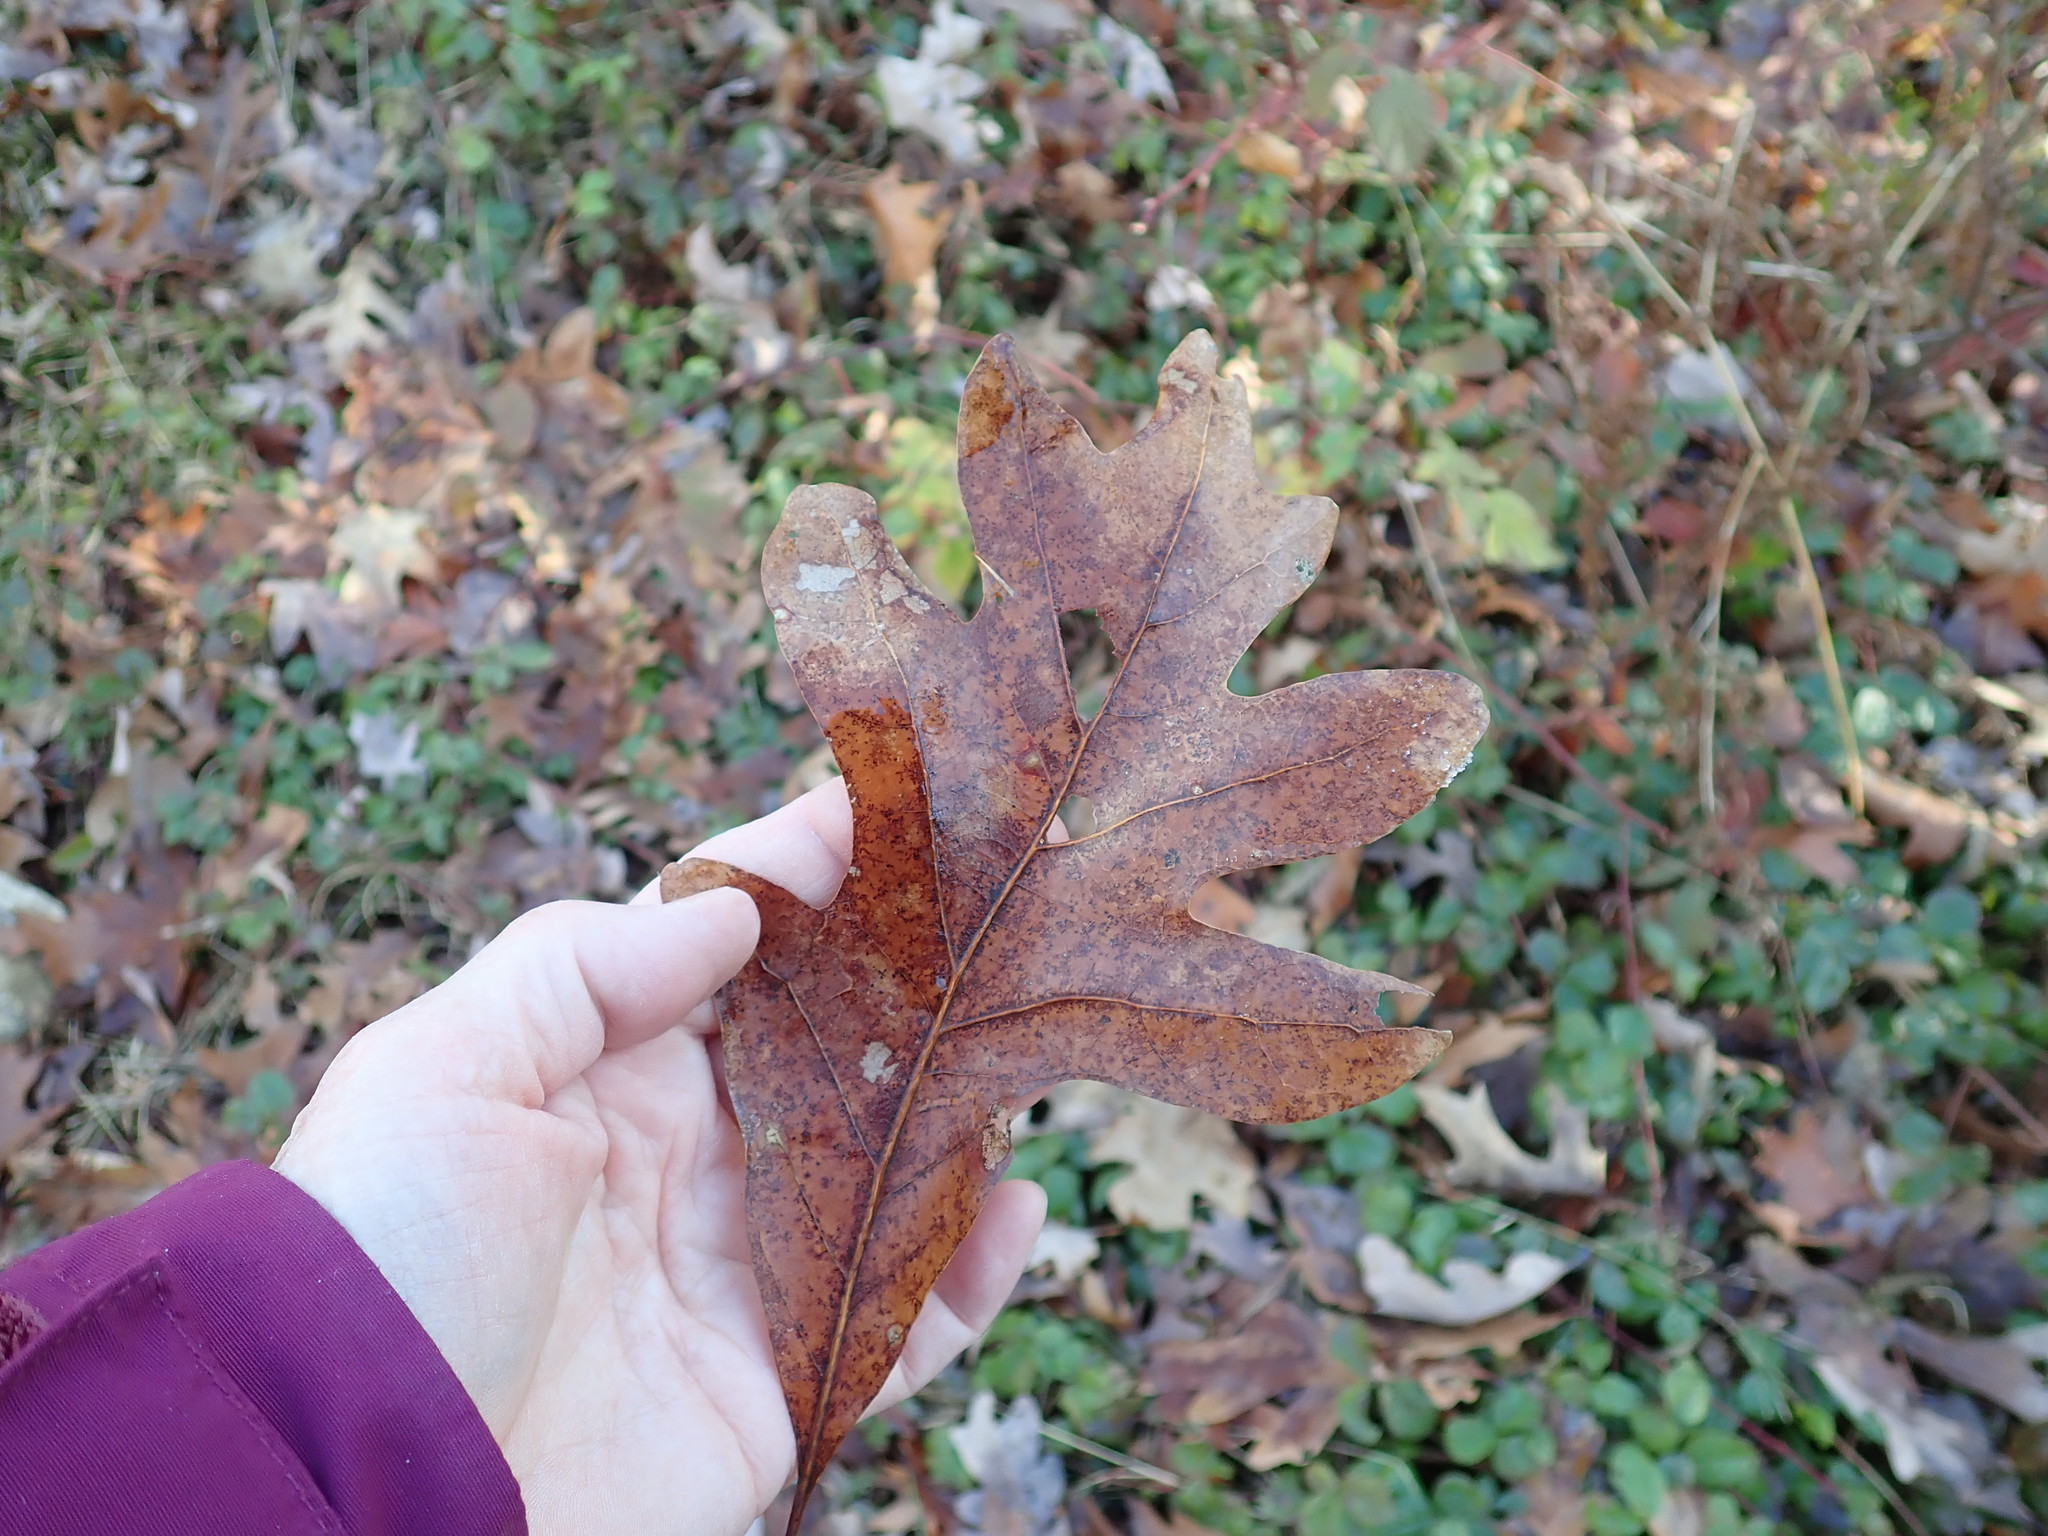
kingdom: Plantae
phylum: Tracheophyta
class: Magnoliopsida
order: Fagales
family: Fagaceae
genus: Quercus
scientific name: Quercus alba
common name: White oak
